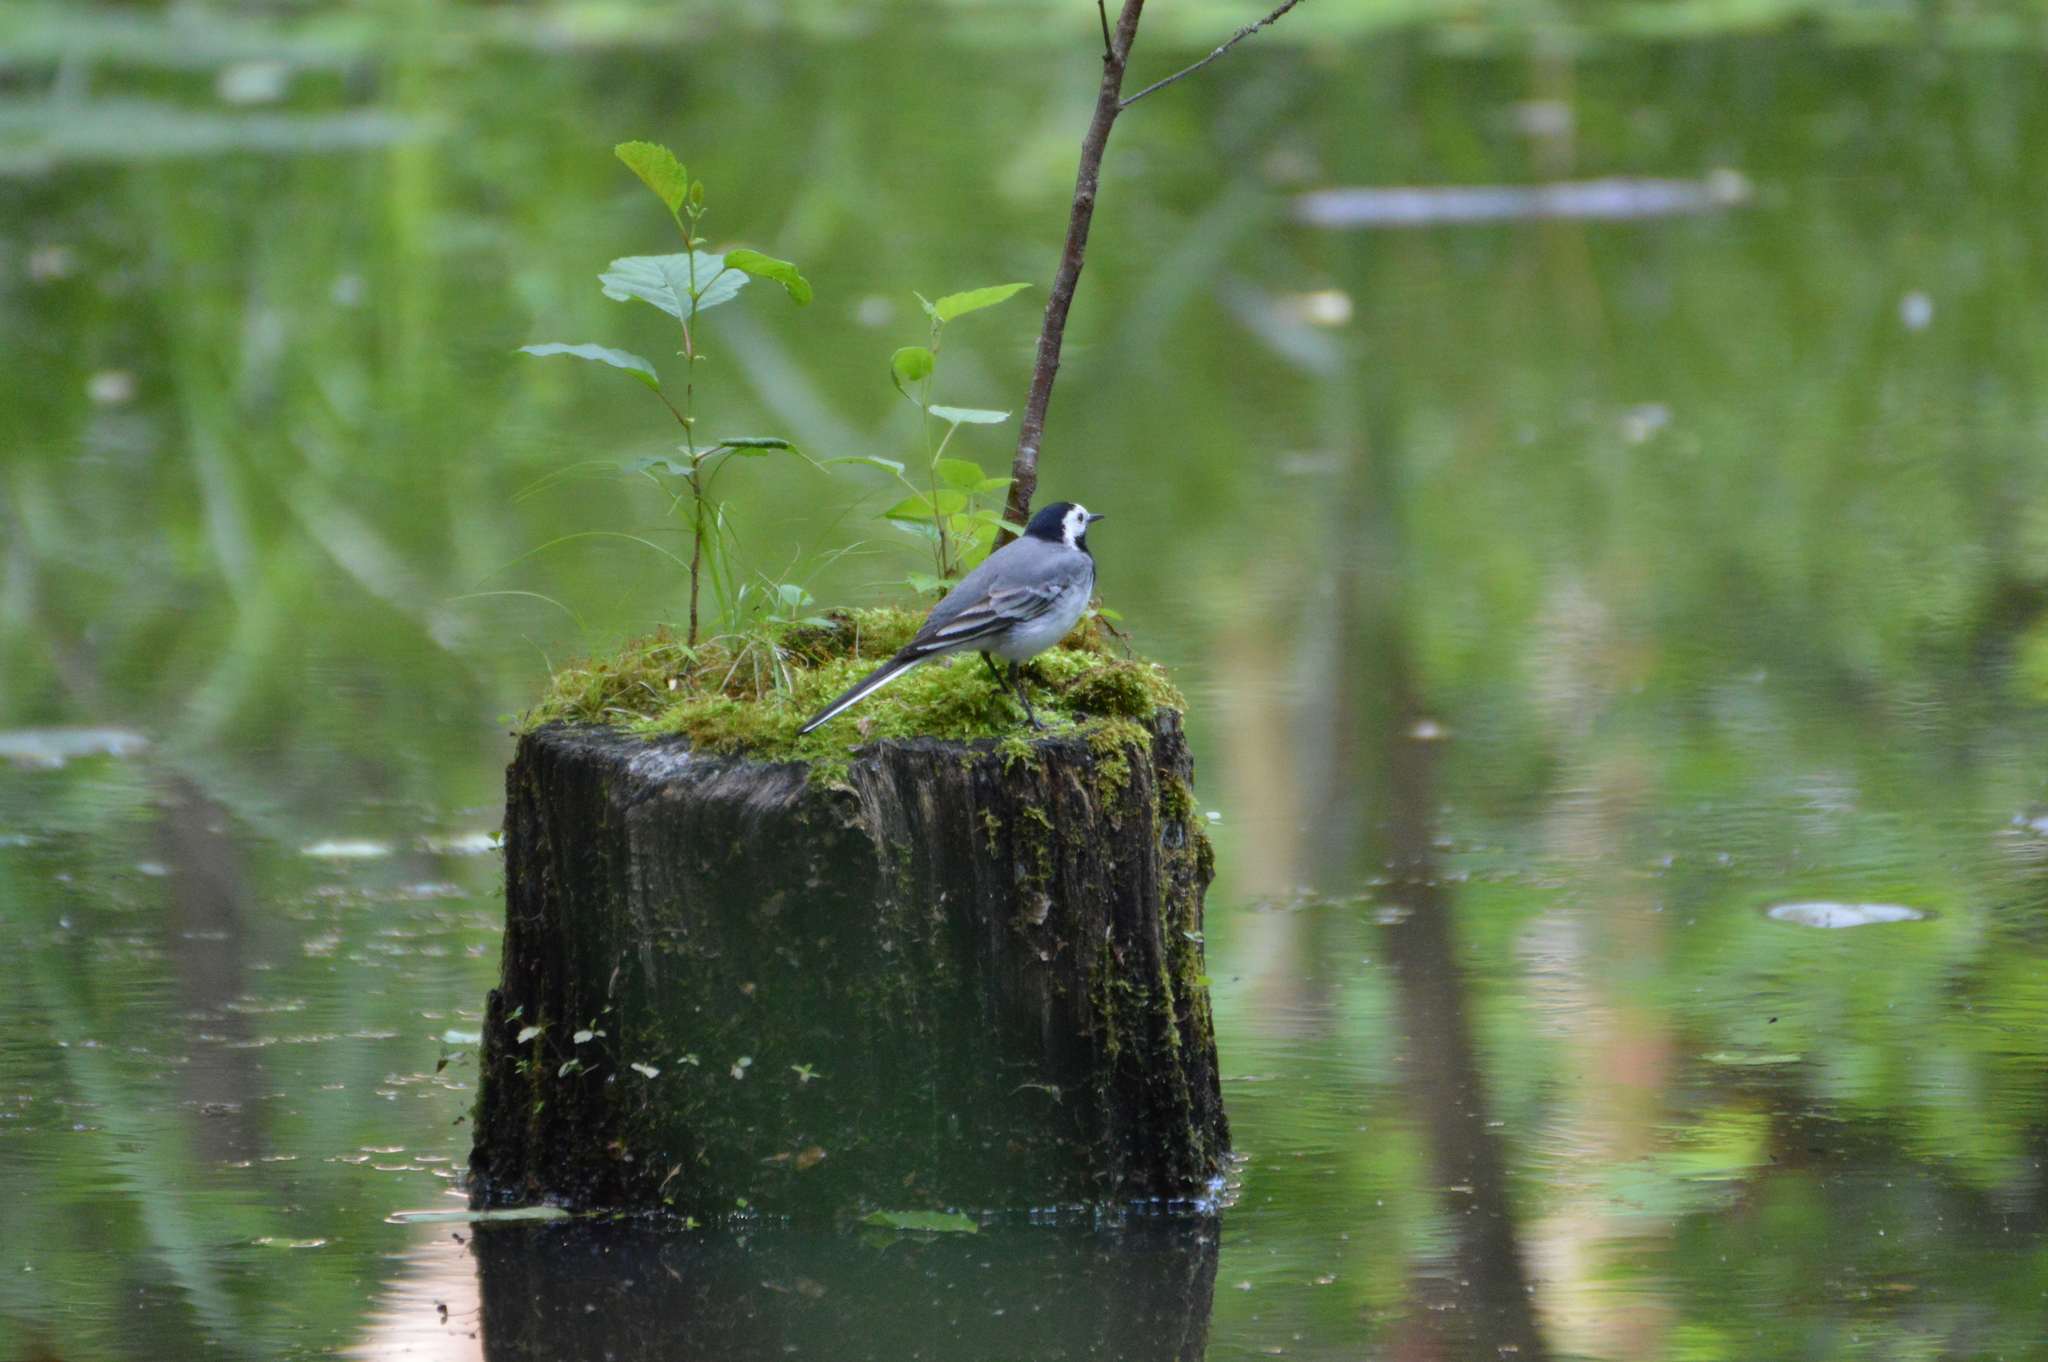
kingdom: Animalia
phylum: Chordata
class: Aves
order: Passeriformes
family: Motacillidae
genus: Motacilla
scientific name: Motacilla alba
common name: White wagtail
